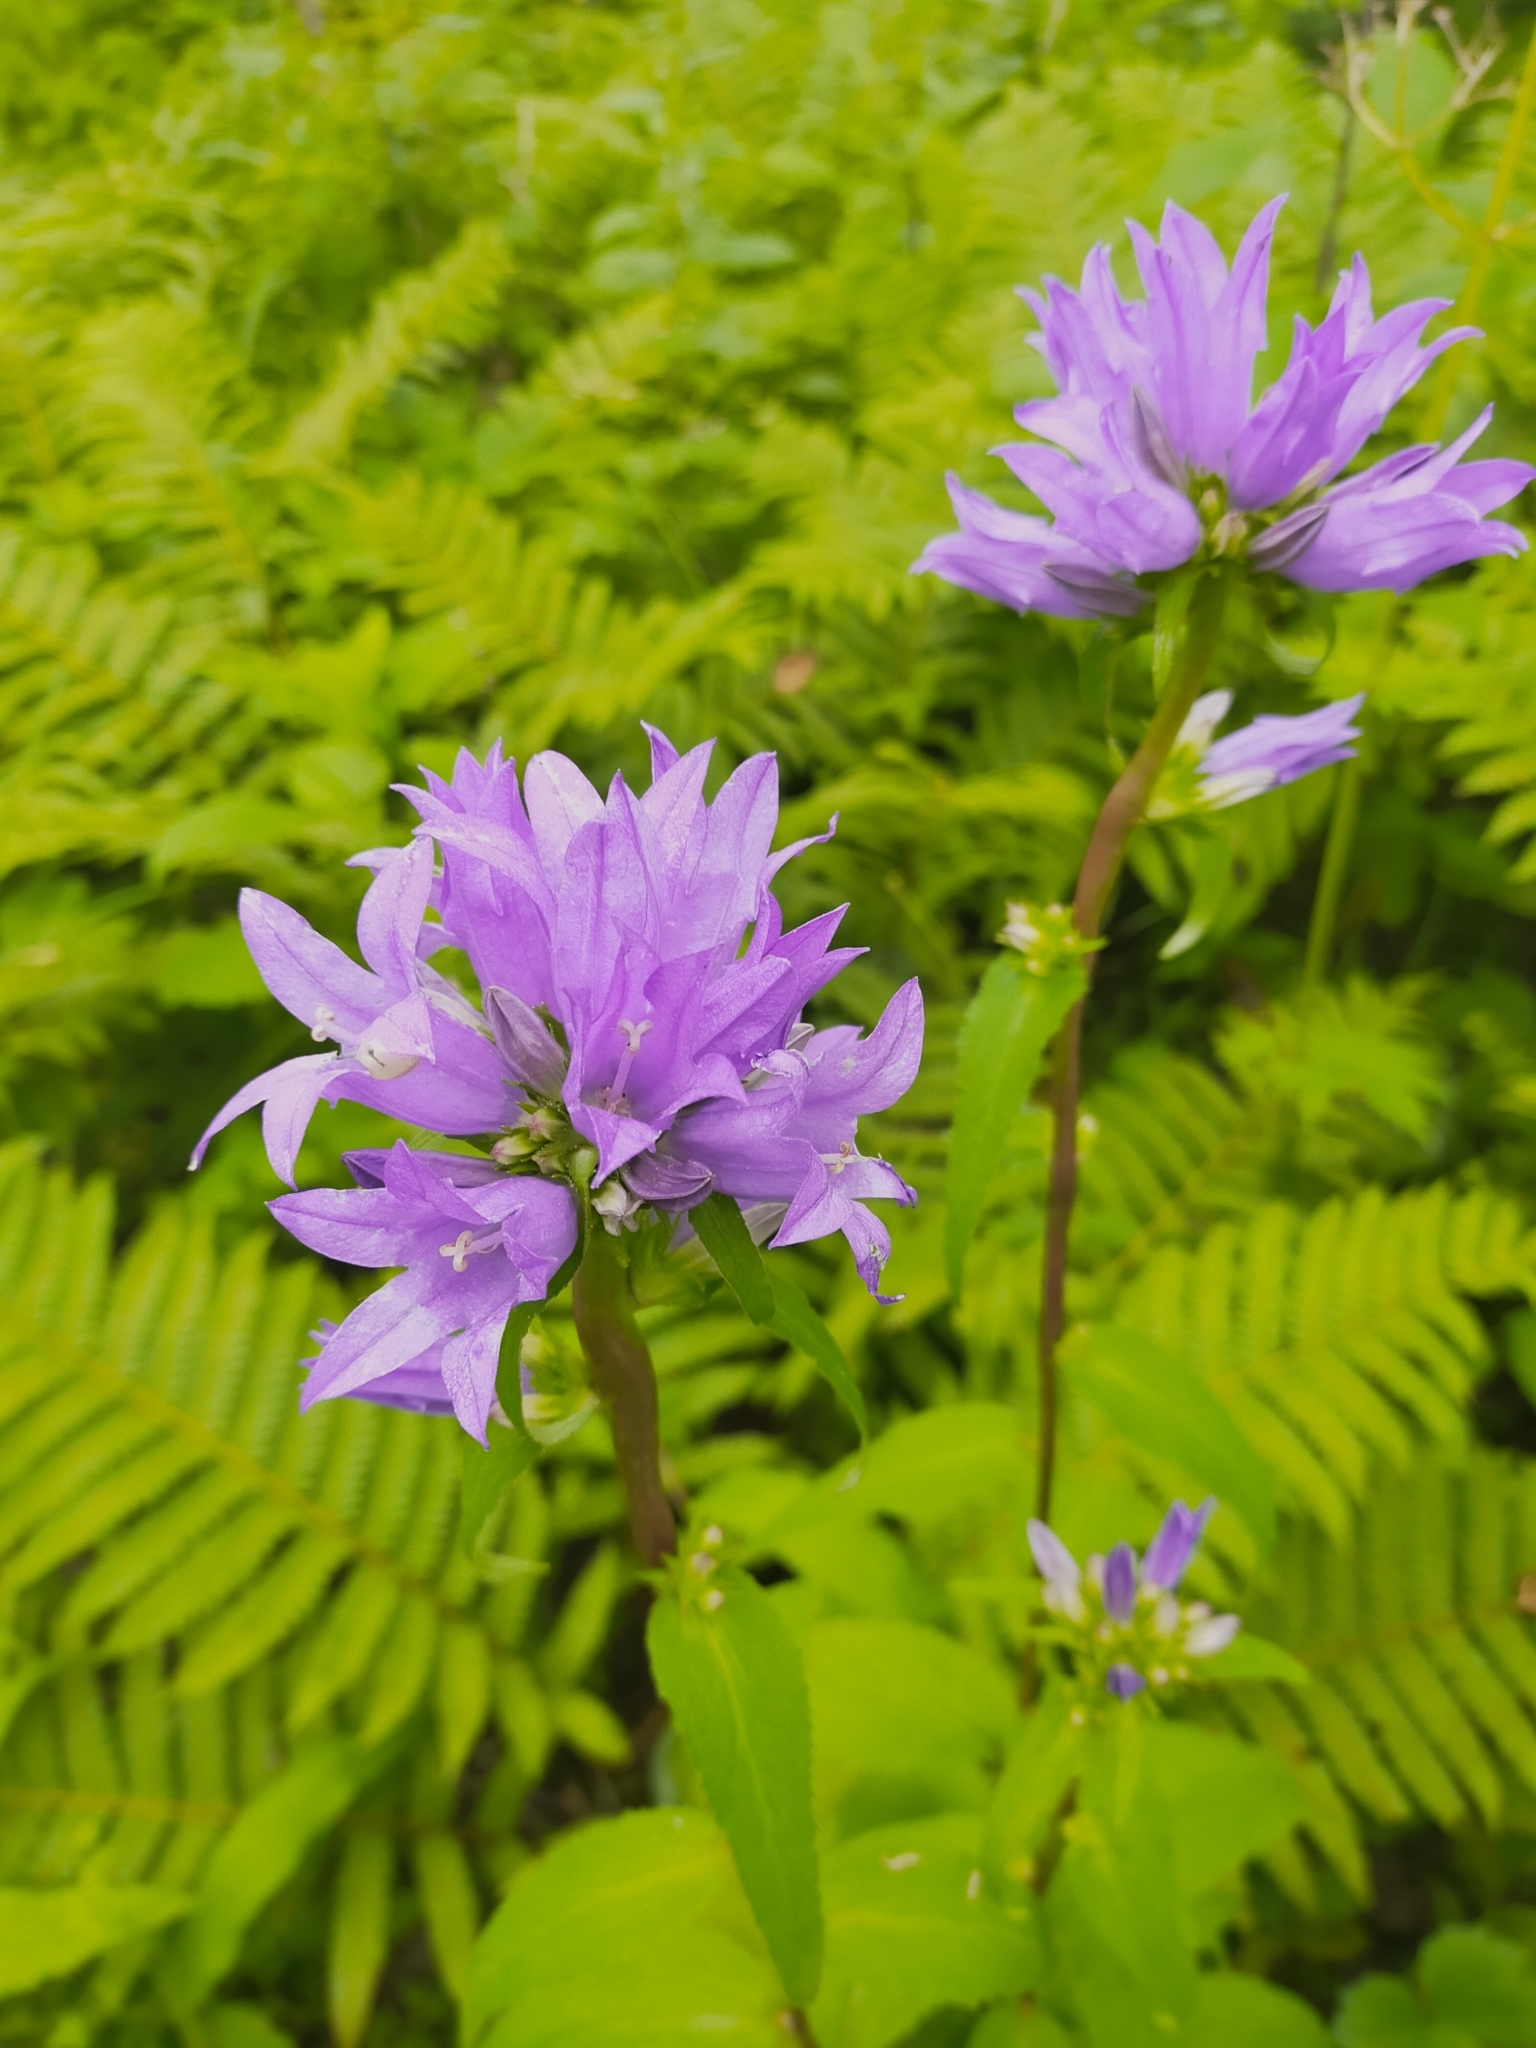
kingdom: Plantae
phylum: Tracheophyta
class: Magnoliopsida
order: Asterales
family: Campanulaceae
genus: Campanula
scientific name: Campanula glomerata
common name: Clustered bellflower
